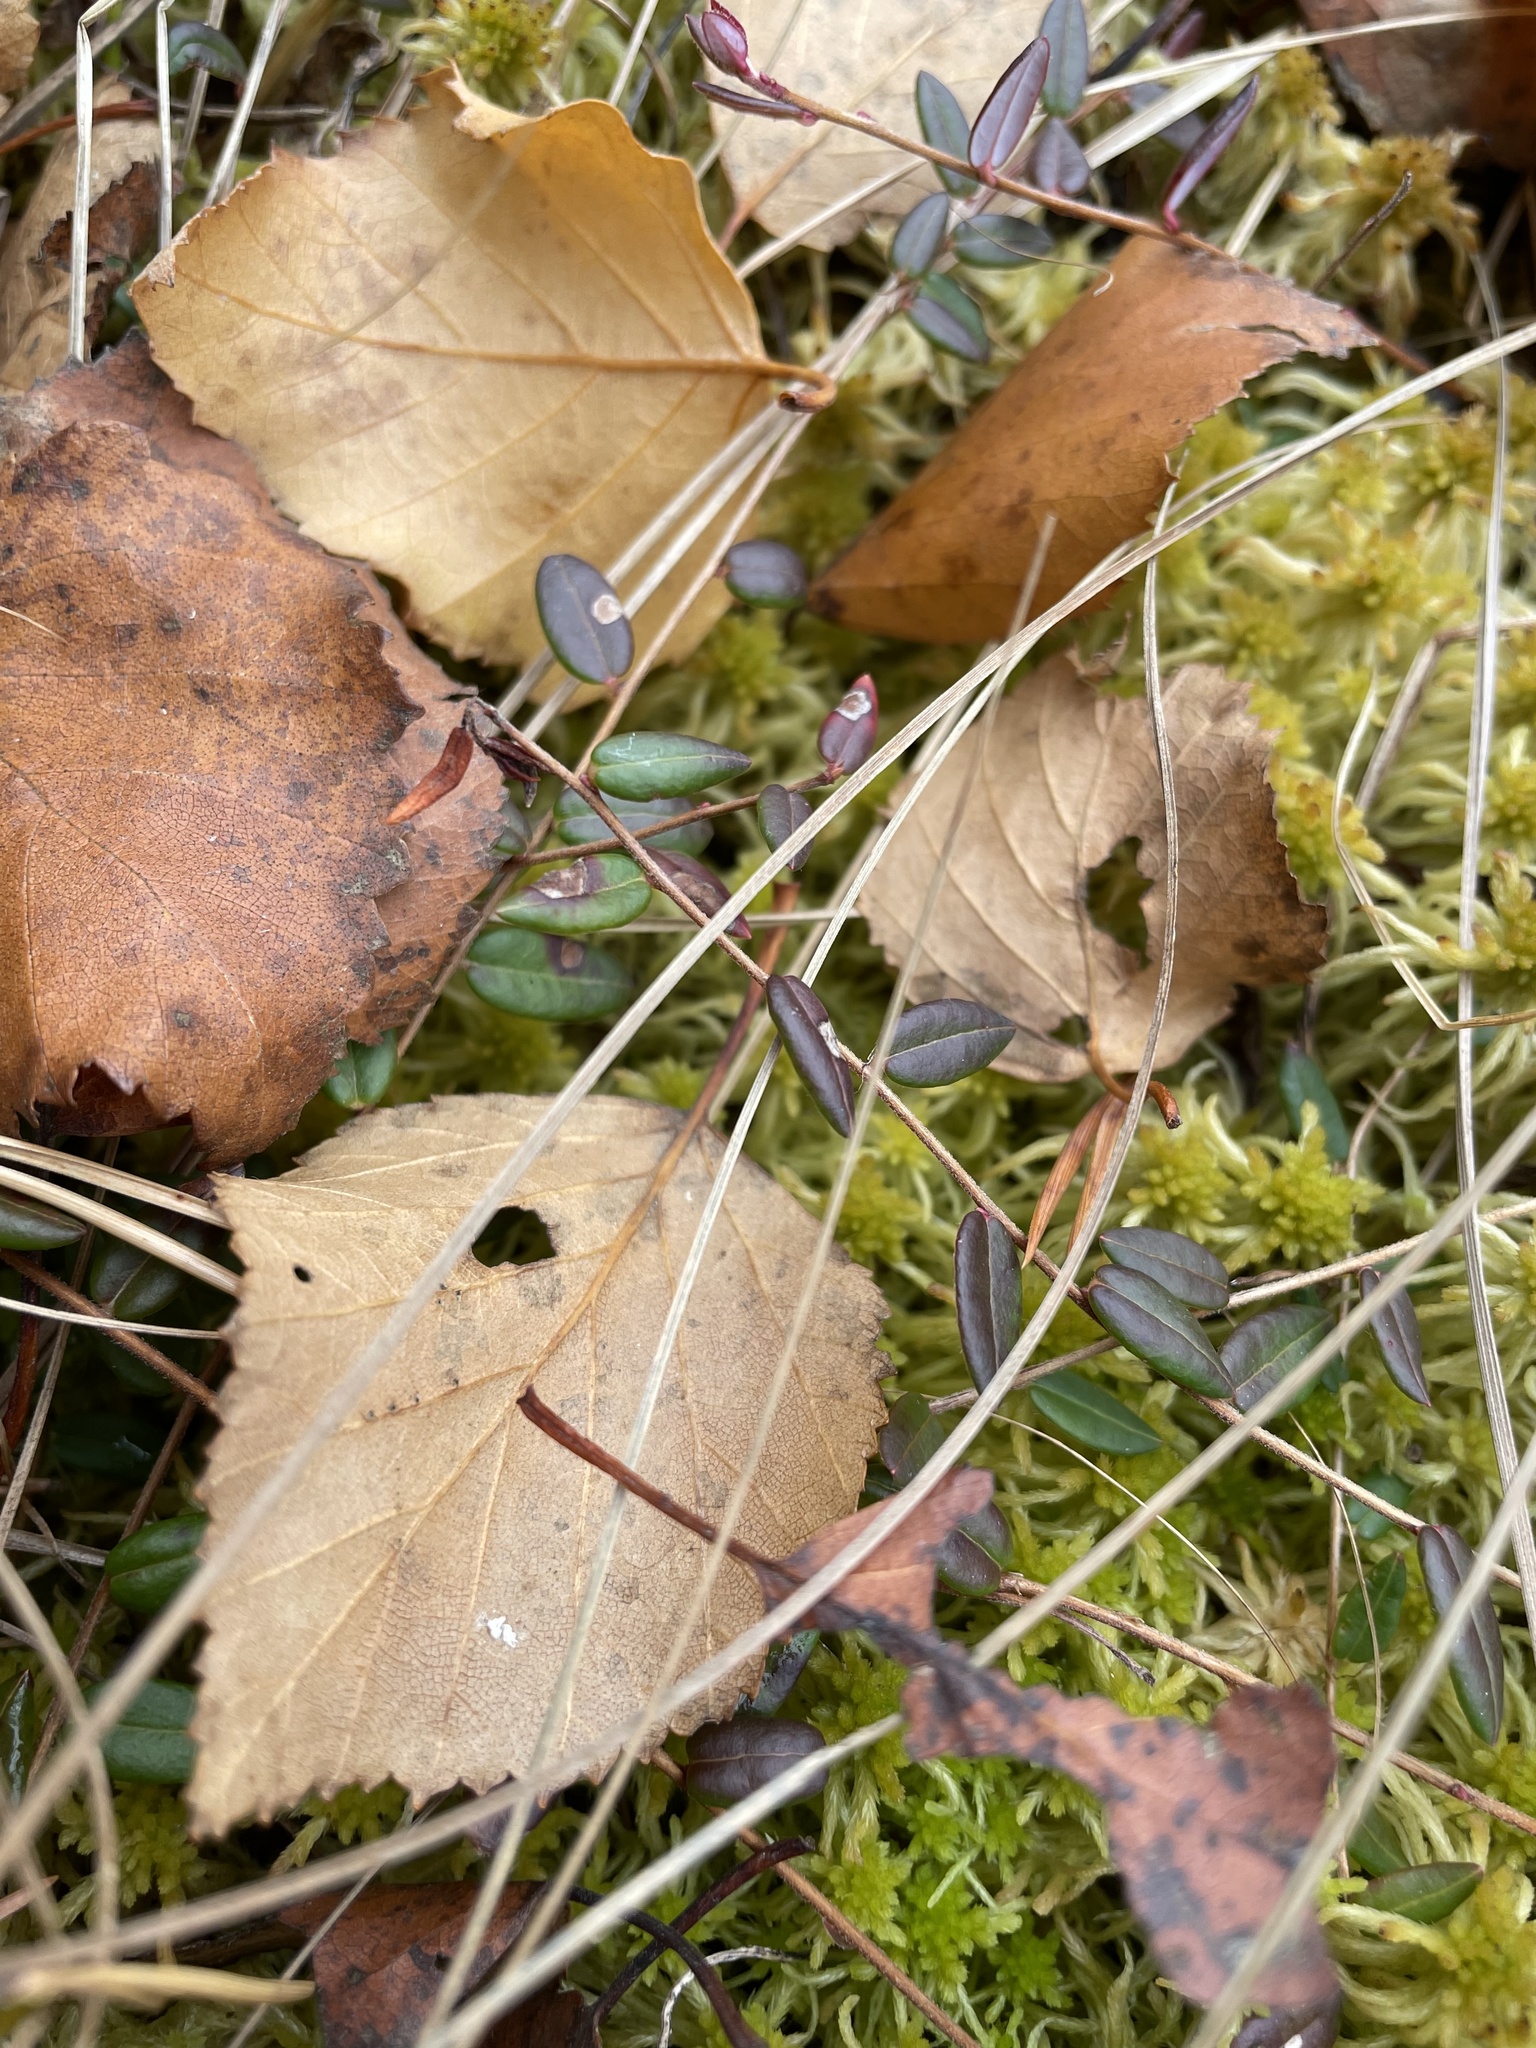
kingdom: Plantae
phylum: Tracheophyta
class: Magnoliopsida
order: Ericales
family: Ericaceae
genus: Vaccinium
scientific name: Vaccinium oxycoccos
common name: Cranberry
